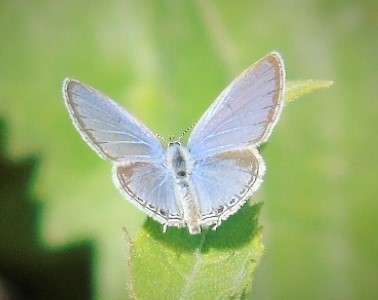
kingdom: Animalia
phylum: Arthropoda
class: Insecta
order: Lepidoptera
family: Lycaenidae
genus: Elkalyce
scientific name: Elkalyce comyntas
